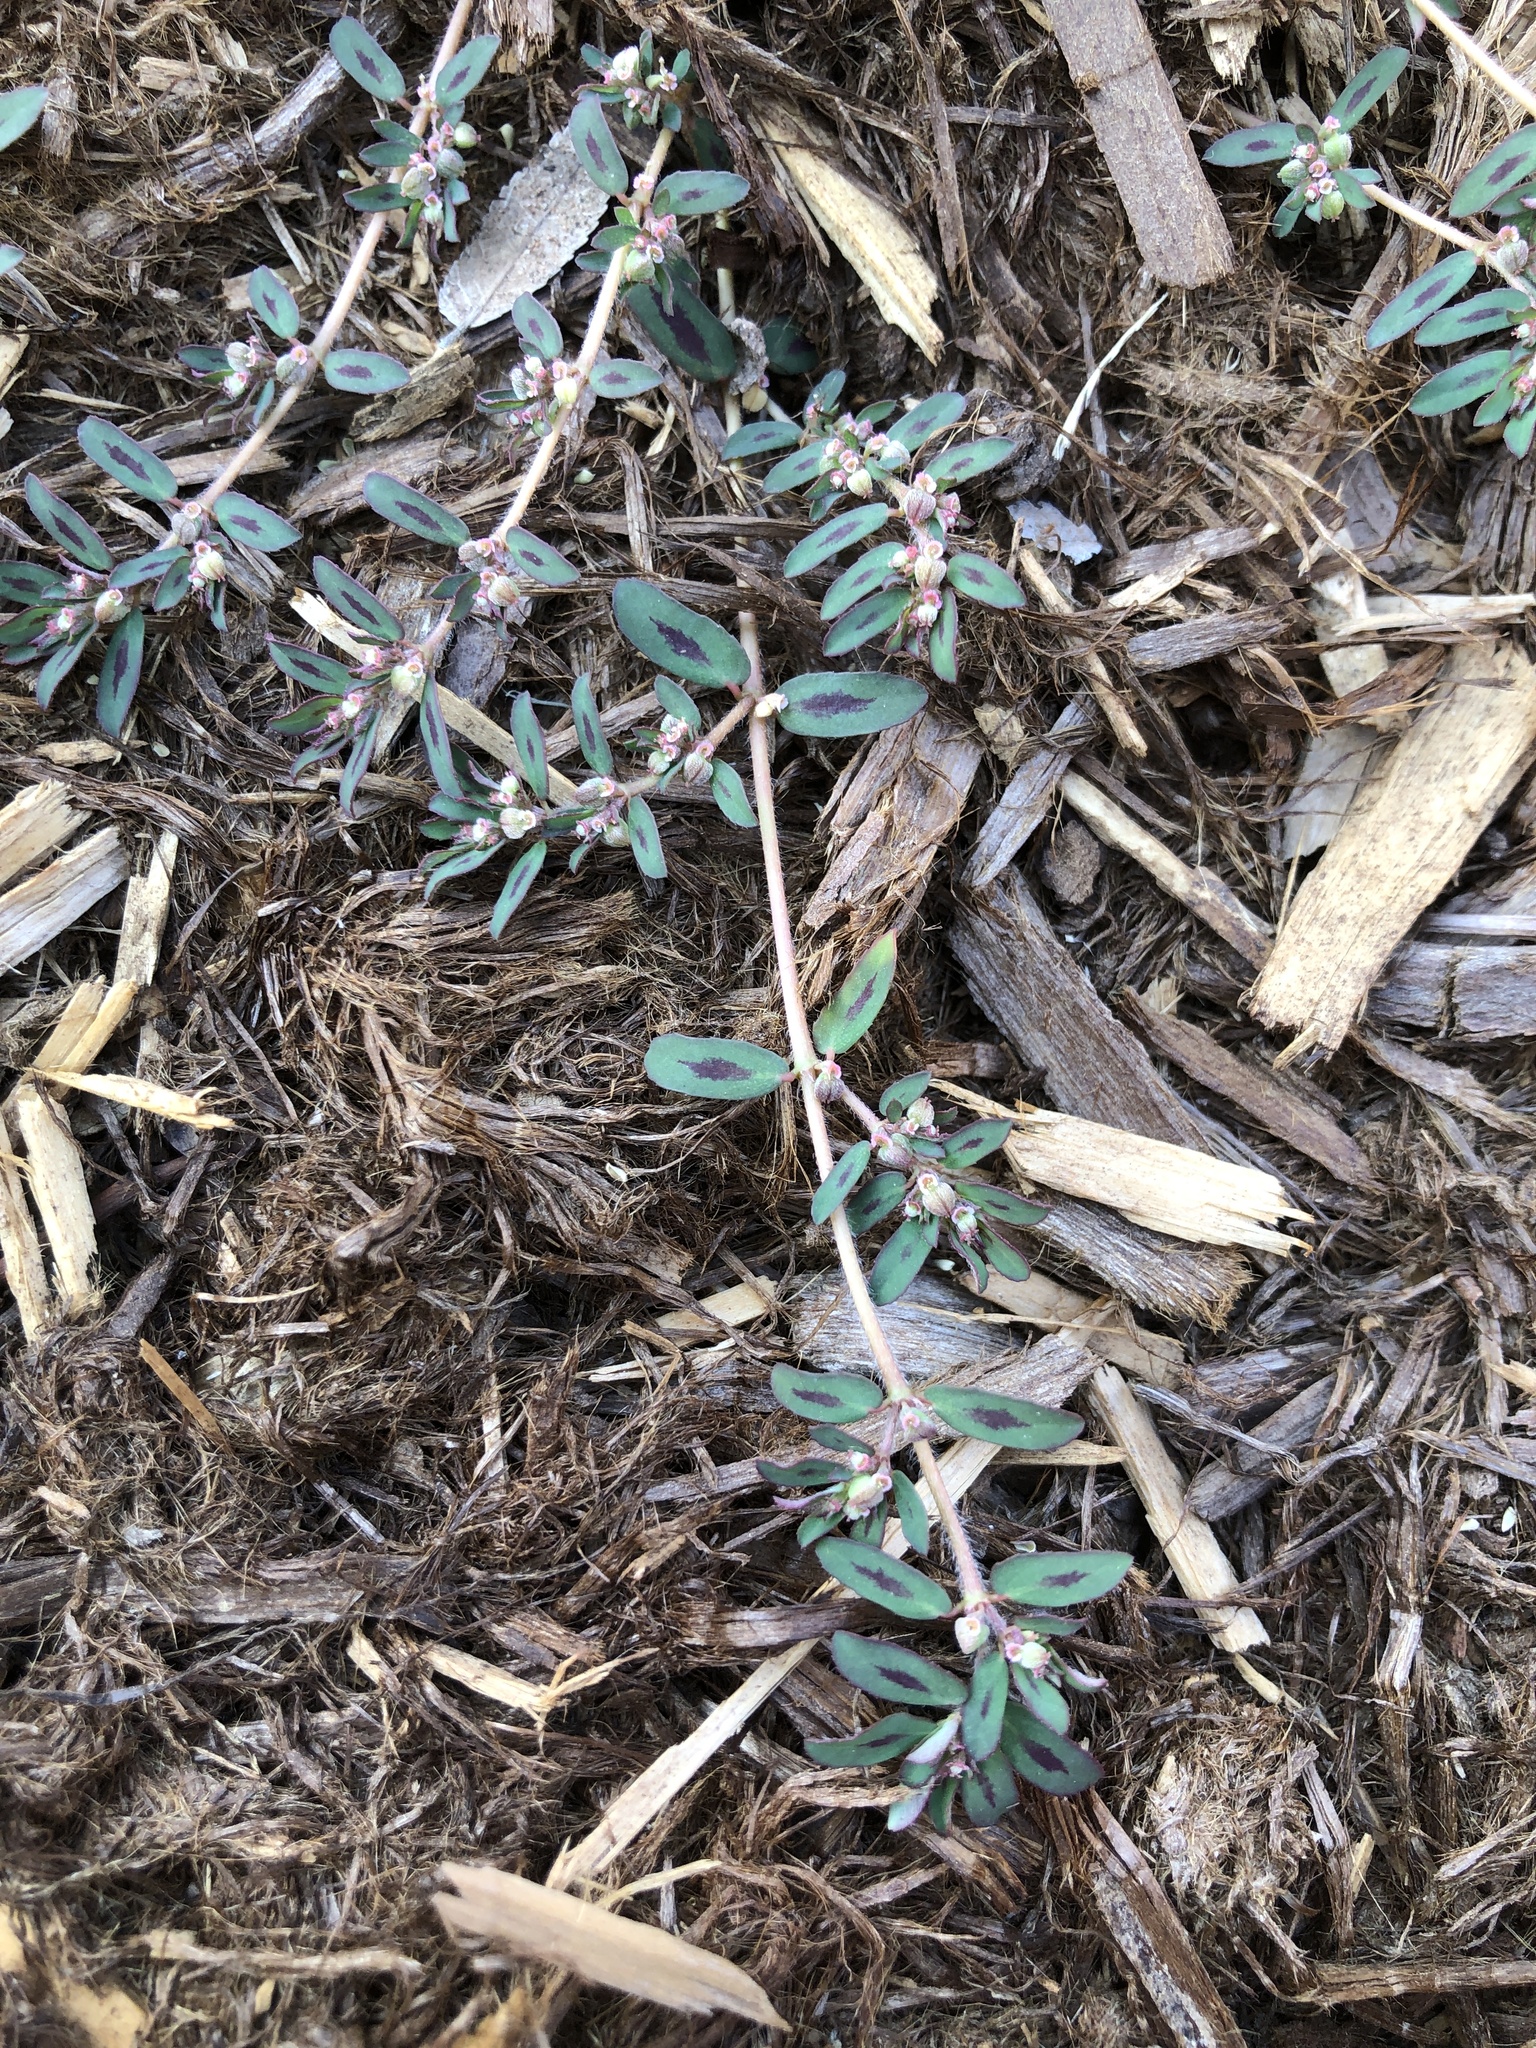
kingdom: Plantae
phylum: Tracheophyta
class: Magnoliopsida
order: Malpighiales
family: Euphorbiaceae
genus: Euphorbia
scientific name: Euphorbia maculata
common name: Spotted spurge
